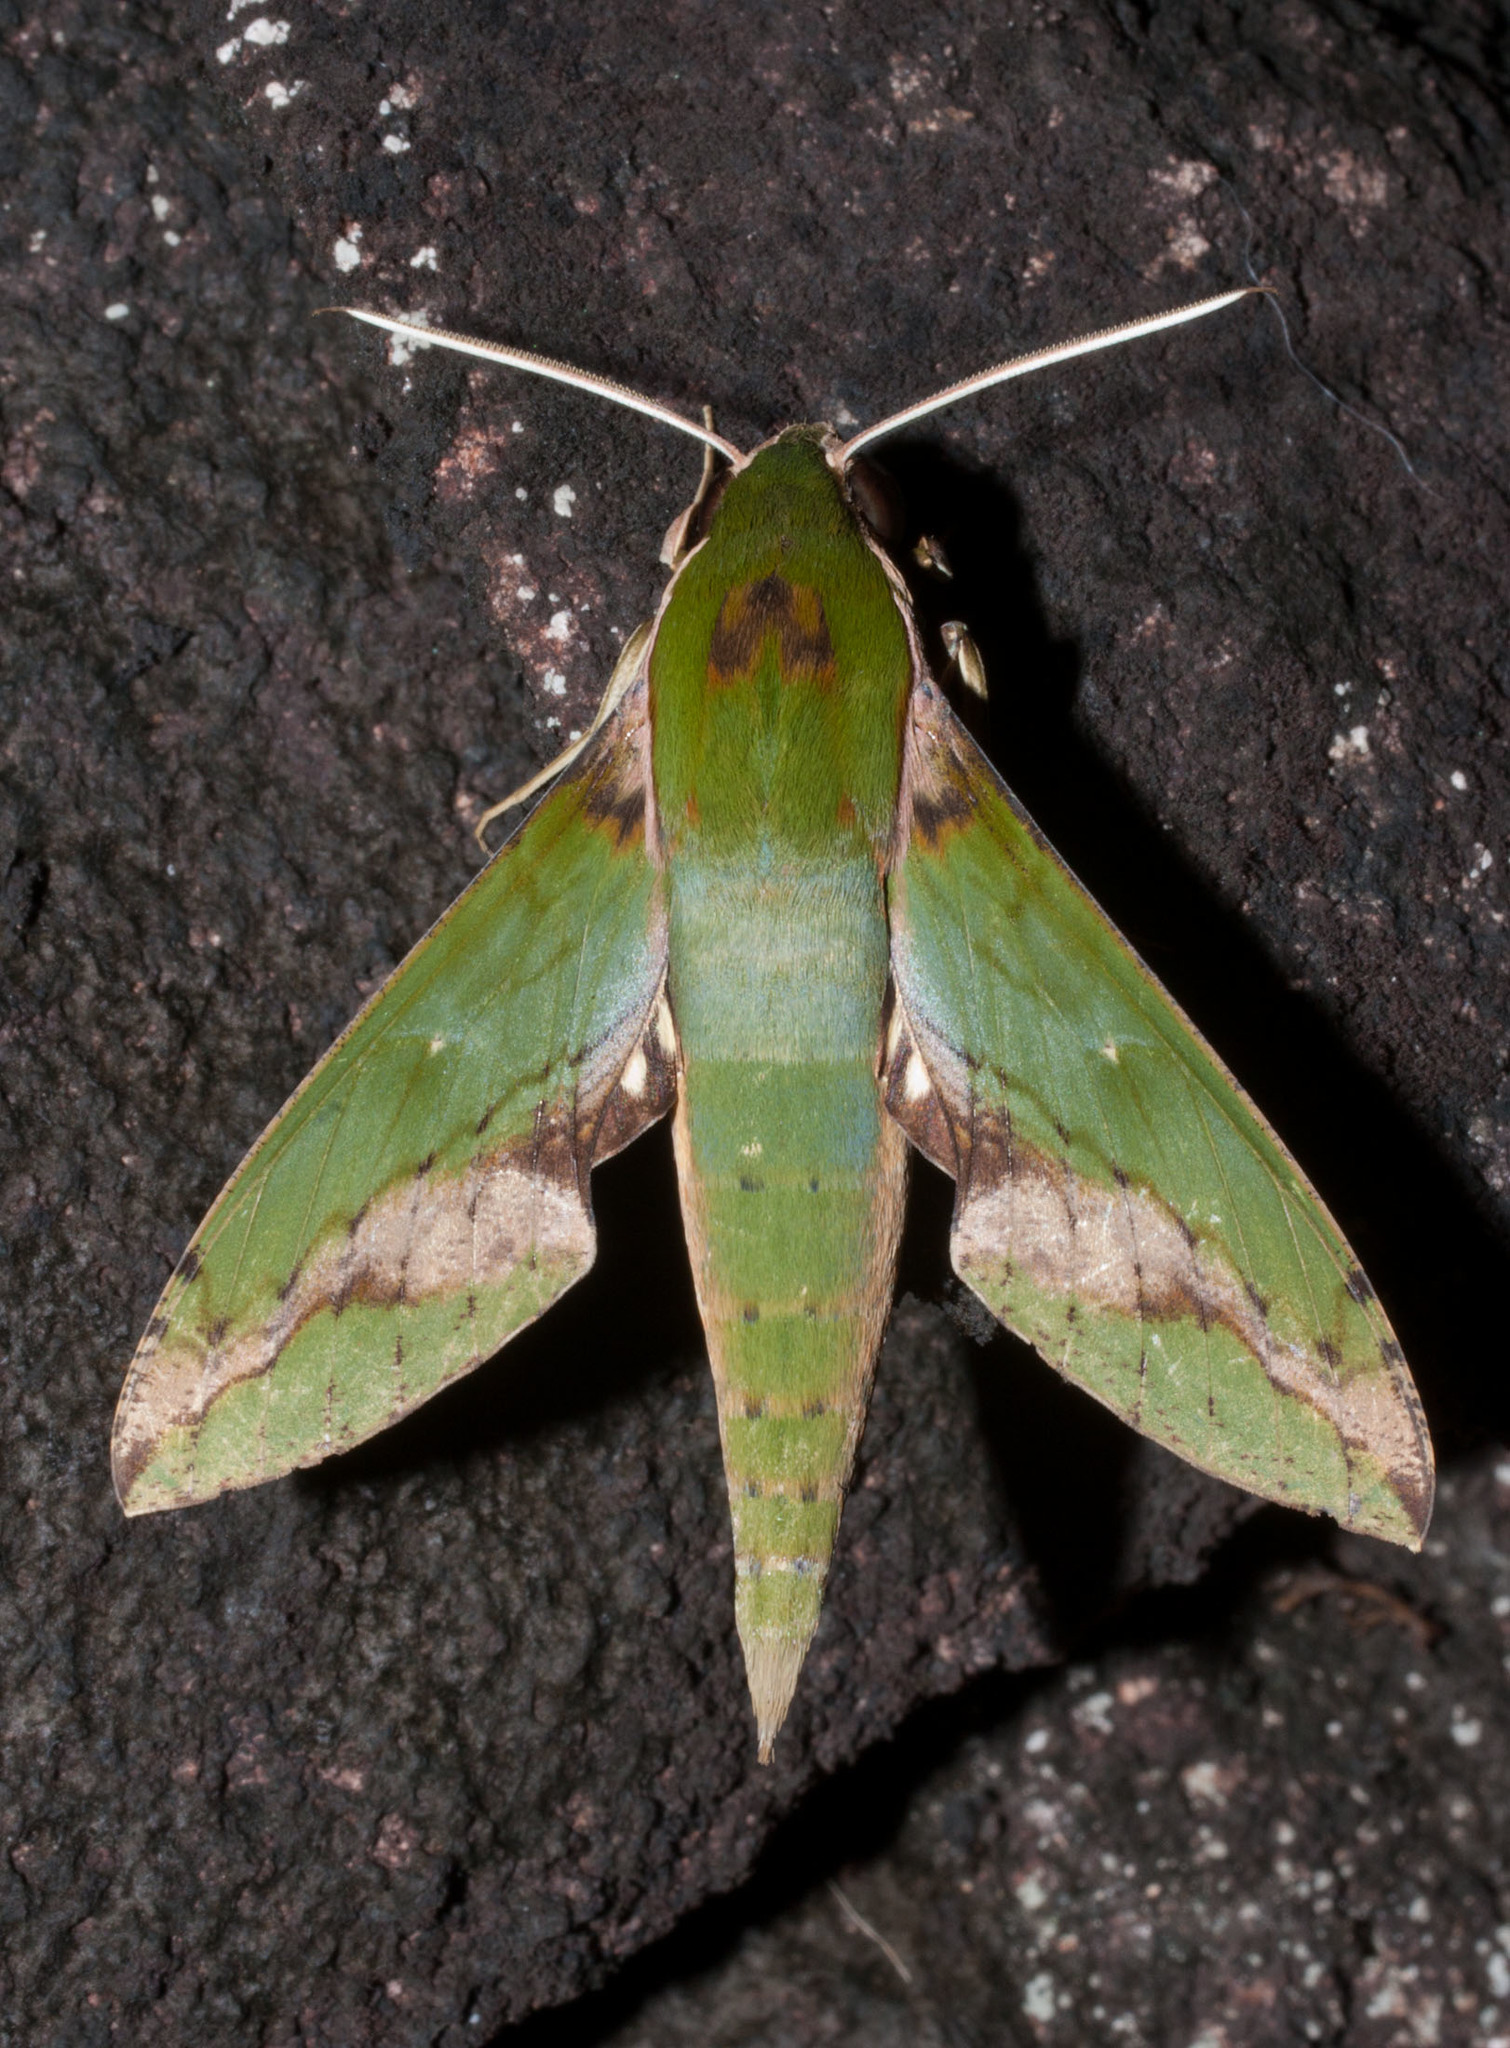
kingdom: Animalia
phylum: Arthropoda
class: Insecta
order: Lepidoptera
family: Sphingidae
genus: Xylophanes
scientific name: Xylophanes chiron
